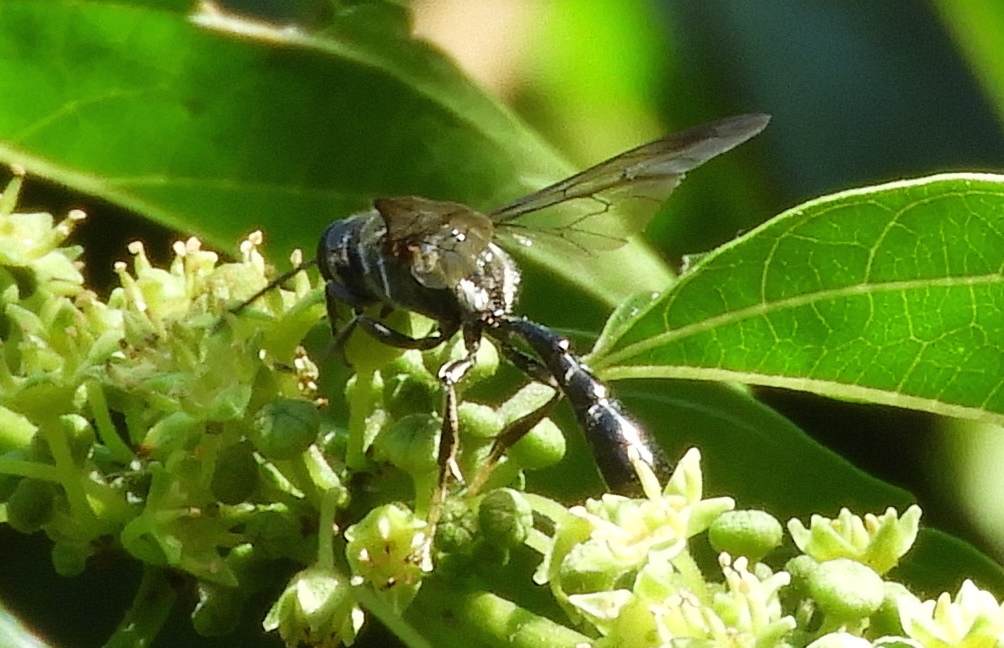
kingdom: Animalia
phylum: Arthropoda
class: Insecta
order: Hymenoptera
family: Crabronidae
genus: Trypoxylon
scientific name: Trypoxylon
